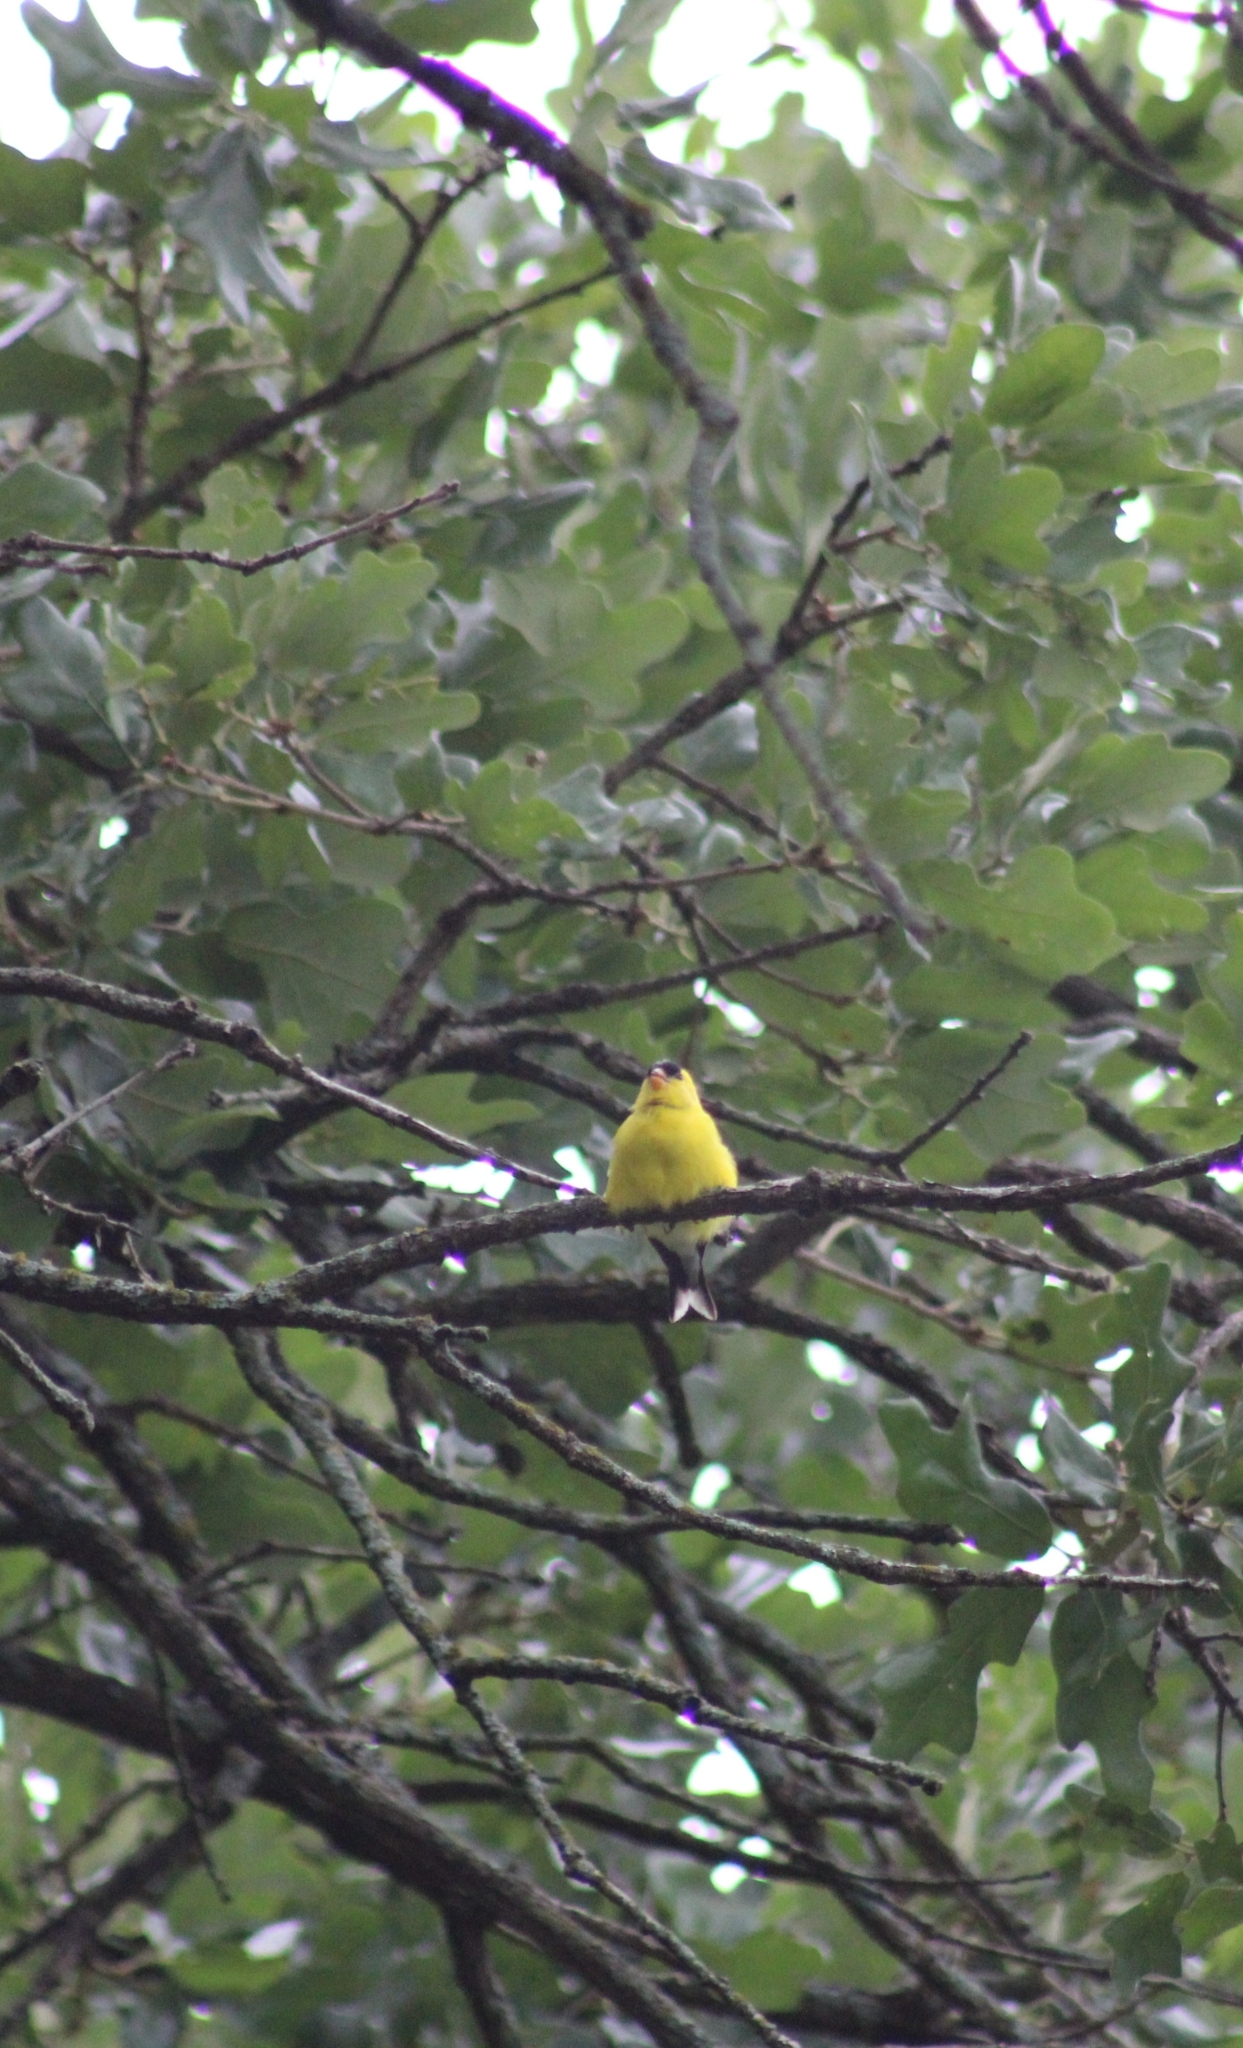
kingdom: Animalia
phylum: Chordata
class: Aves
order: Passeriformes
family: Fringillidae
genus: Spinus
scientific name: Spinus tristis
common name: American goldfinch
